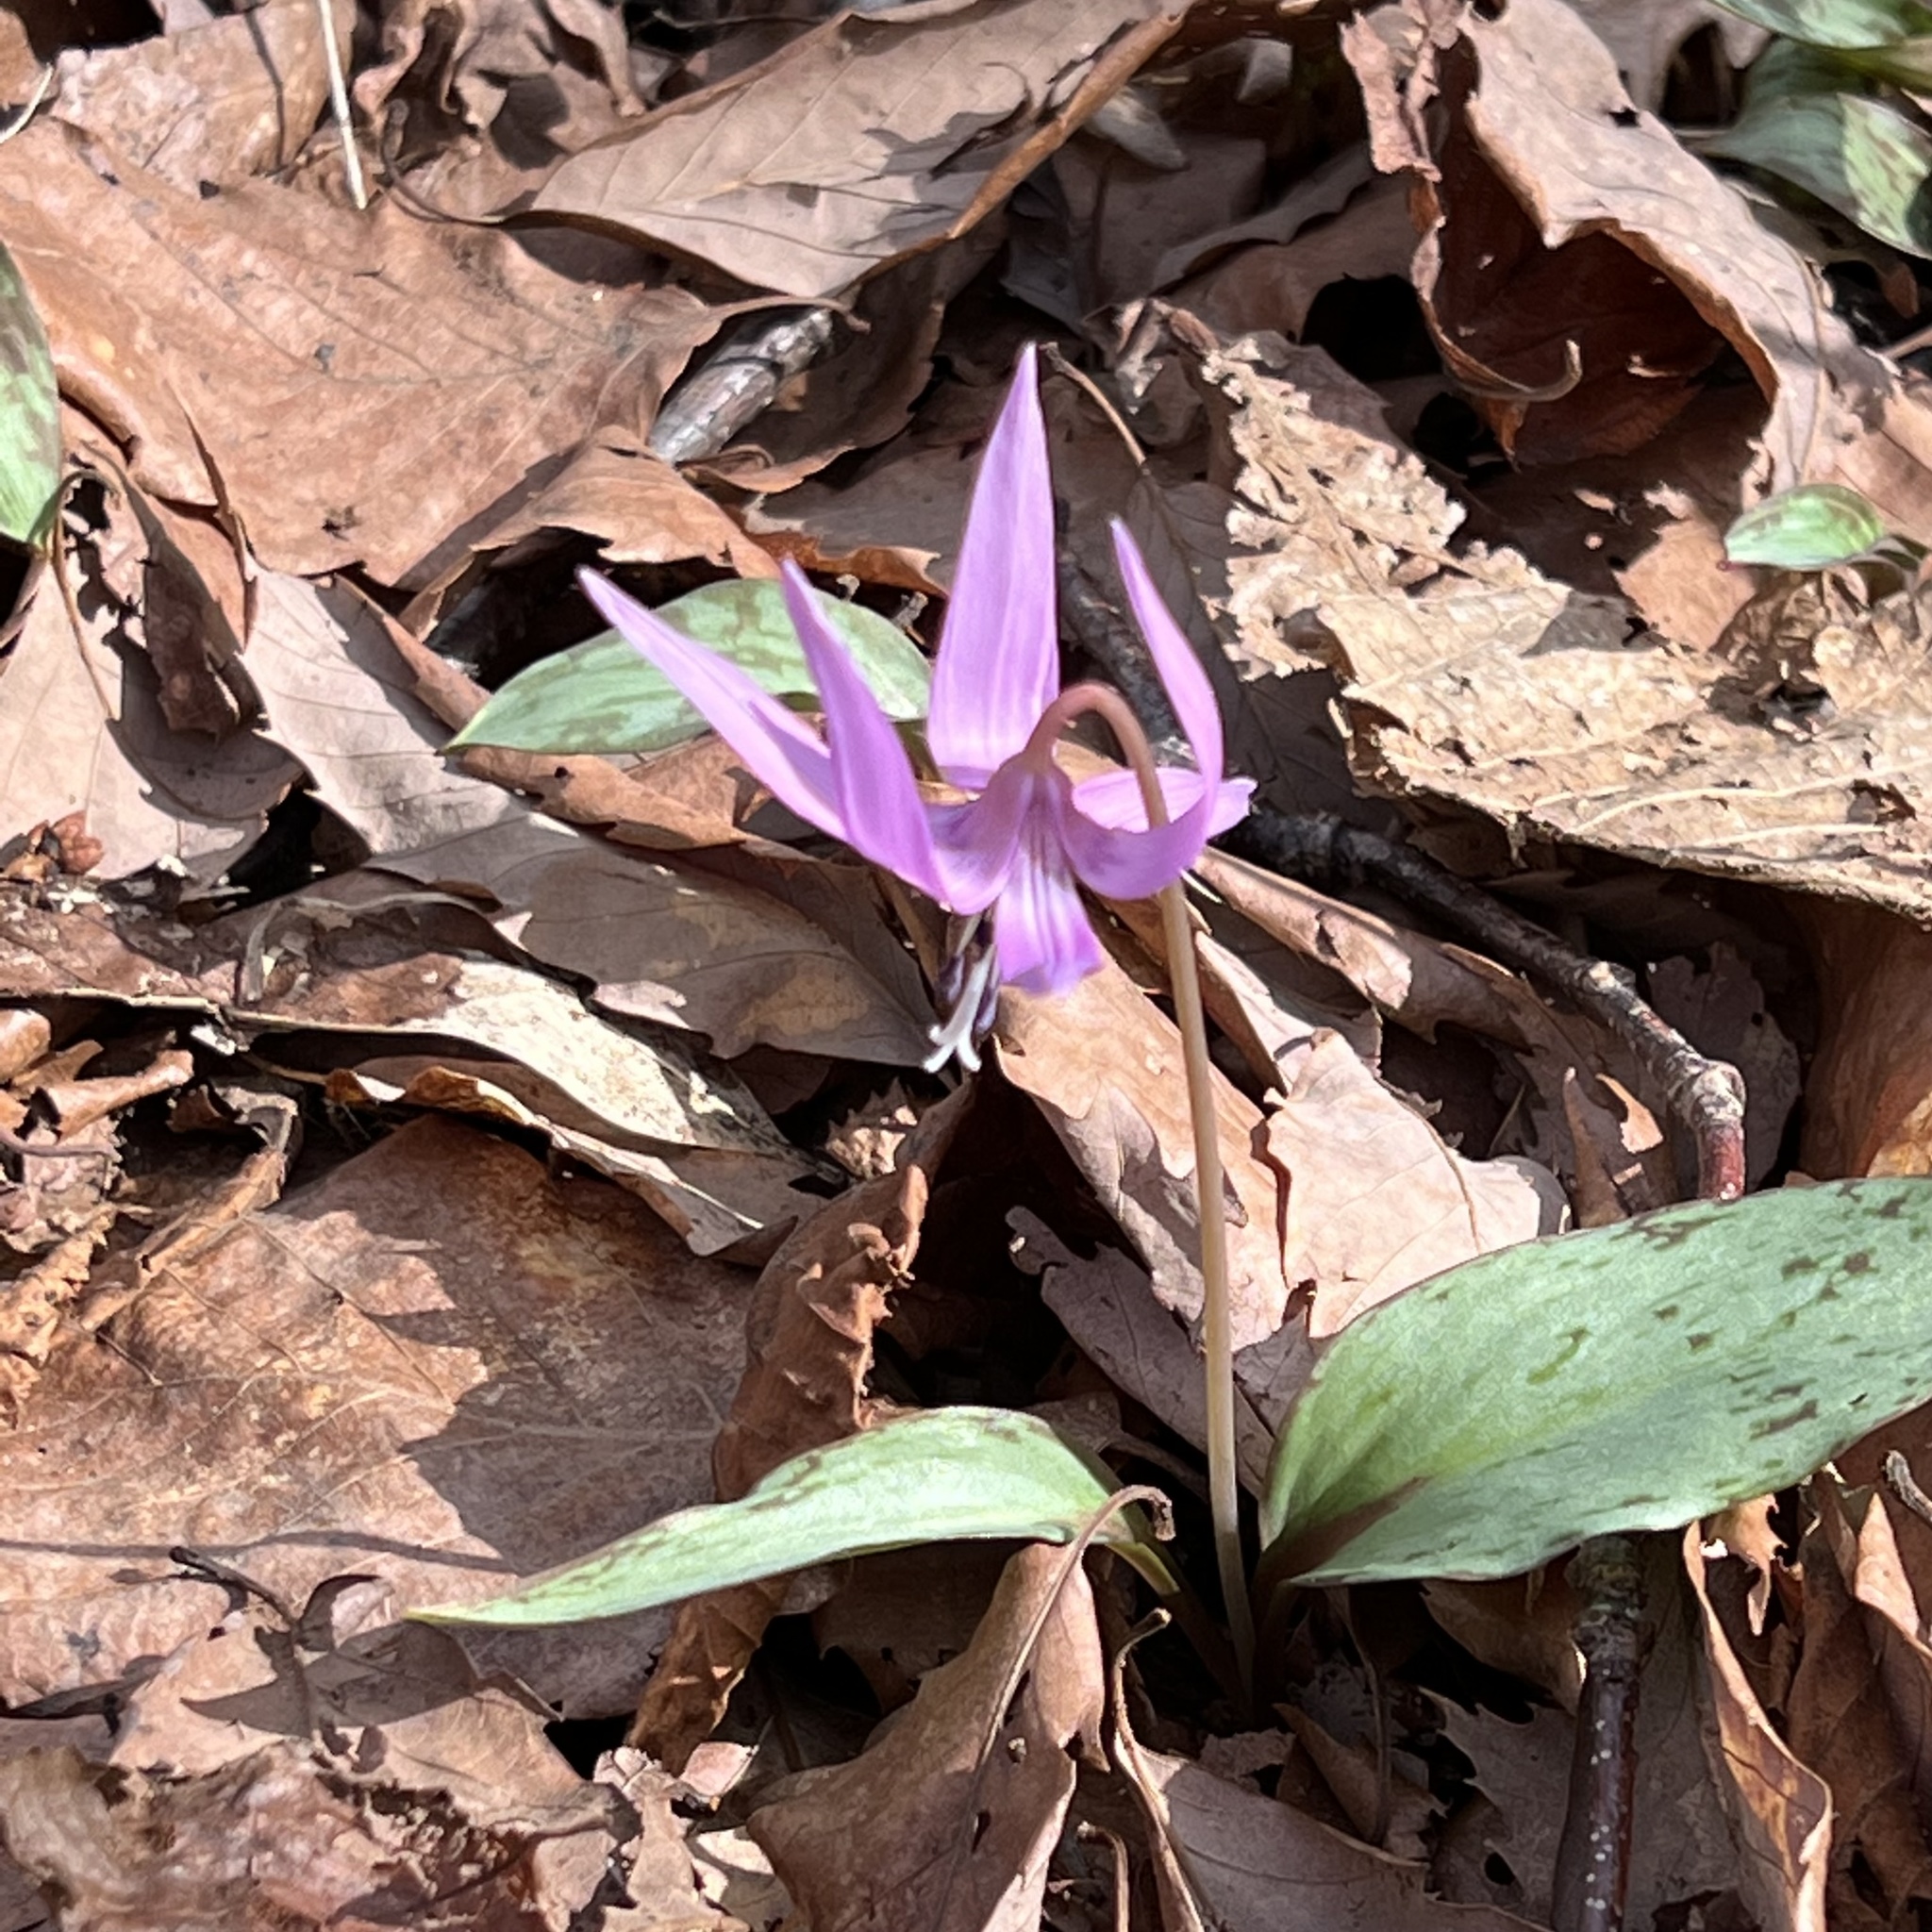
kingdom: Plantae
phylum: Tracheophyta
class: Liliopsida
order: Liliales
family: Liliaceae
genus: Erythronium
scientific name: Erythronium japonicum
